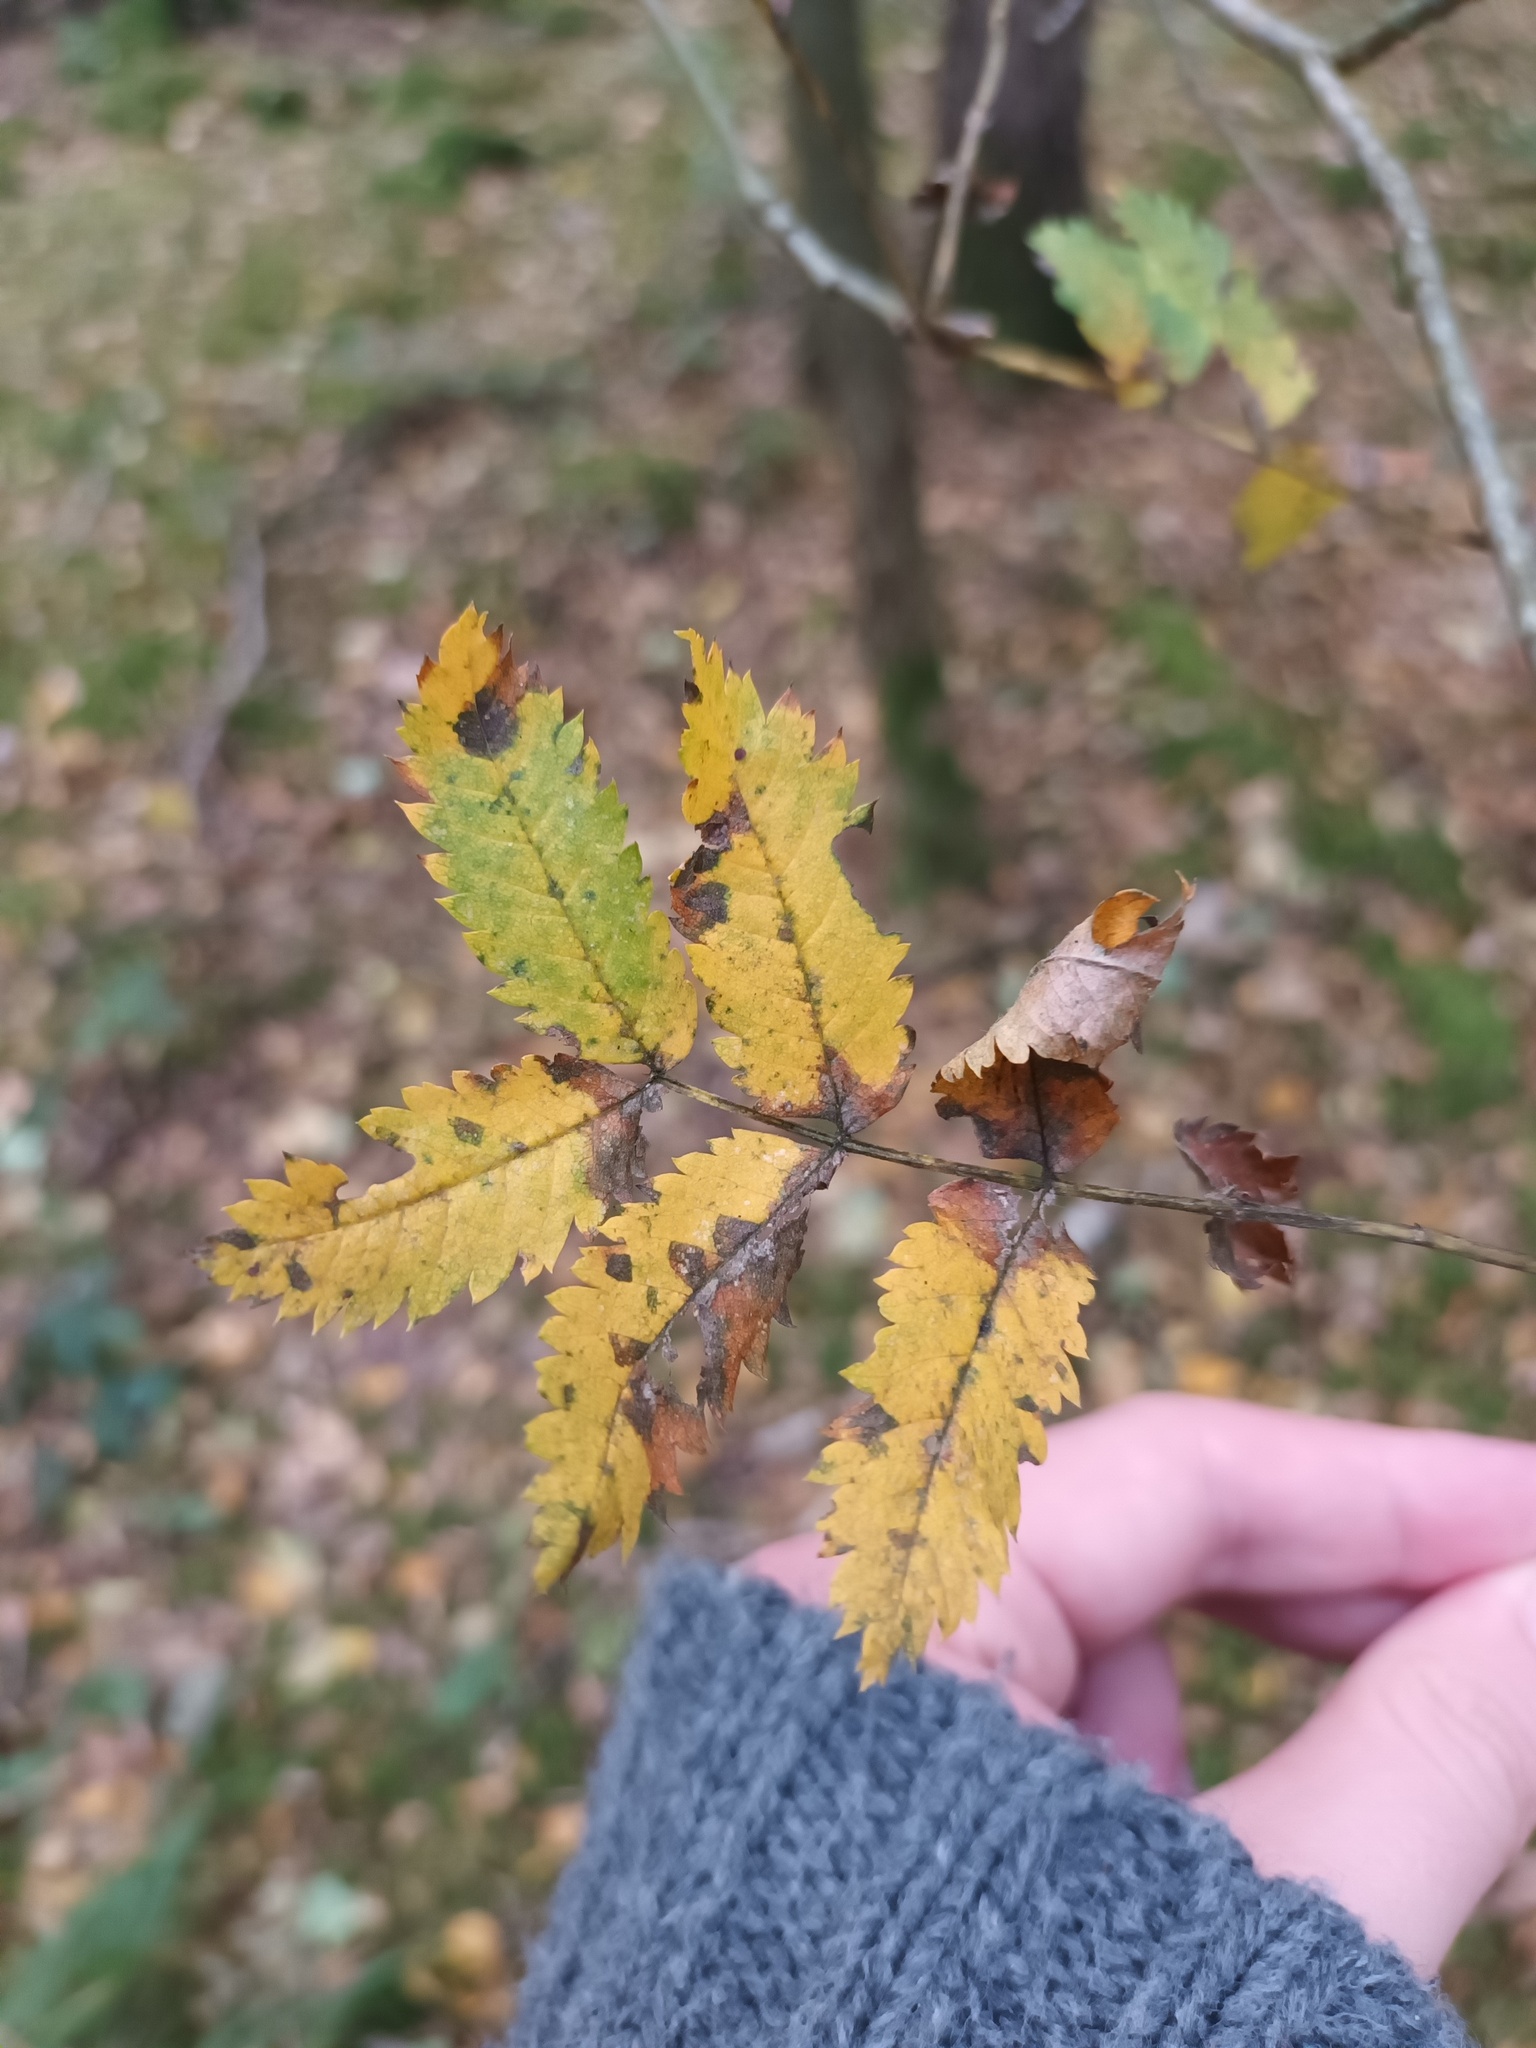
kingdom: Plantae
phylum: Tracheophyta
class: Magnoliopsida
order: Rosales
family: Rosaceae
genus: Sorbus
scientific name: Sorbus aucuparia
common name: Rowan
